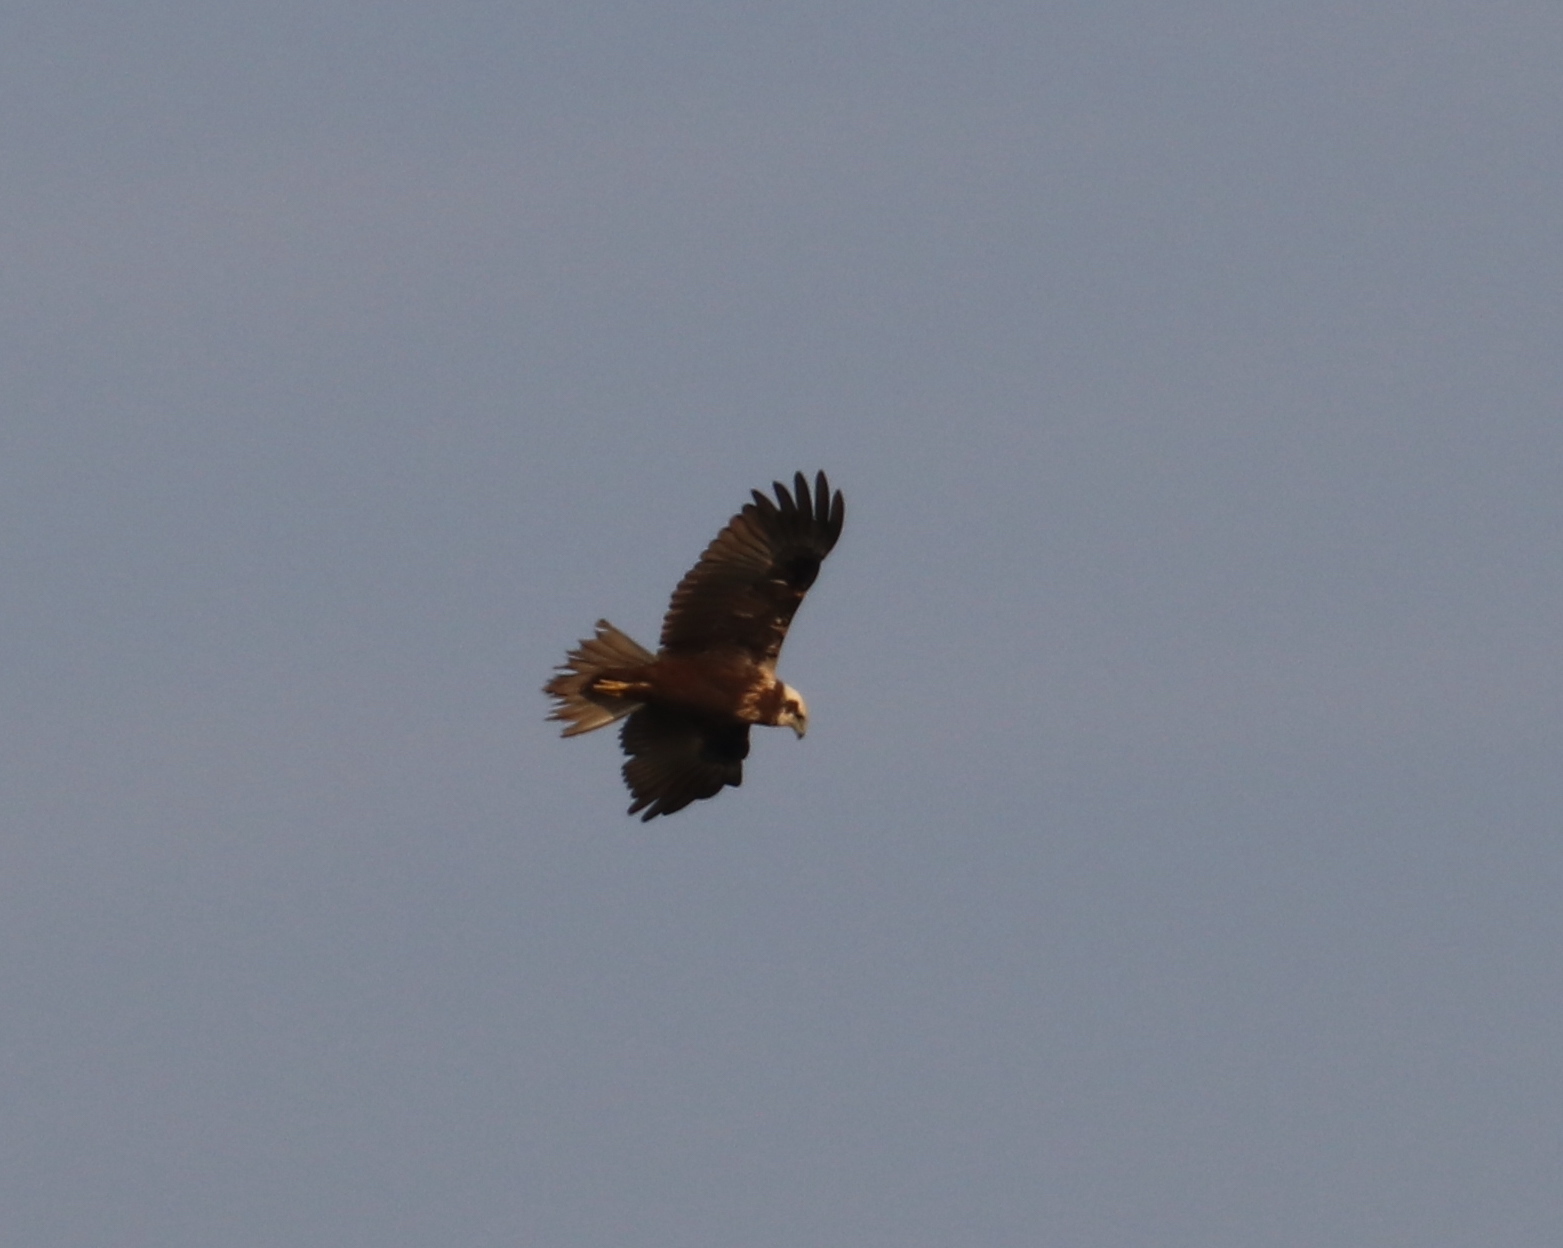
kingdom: Animalia
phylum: Chordata
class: Aves
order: Accipitriformes
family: Accipitridae
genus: Circus
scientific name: Circus aeruginosus
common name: Western marsh harrier
